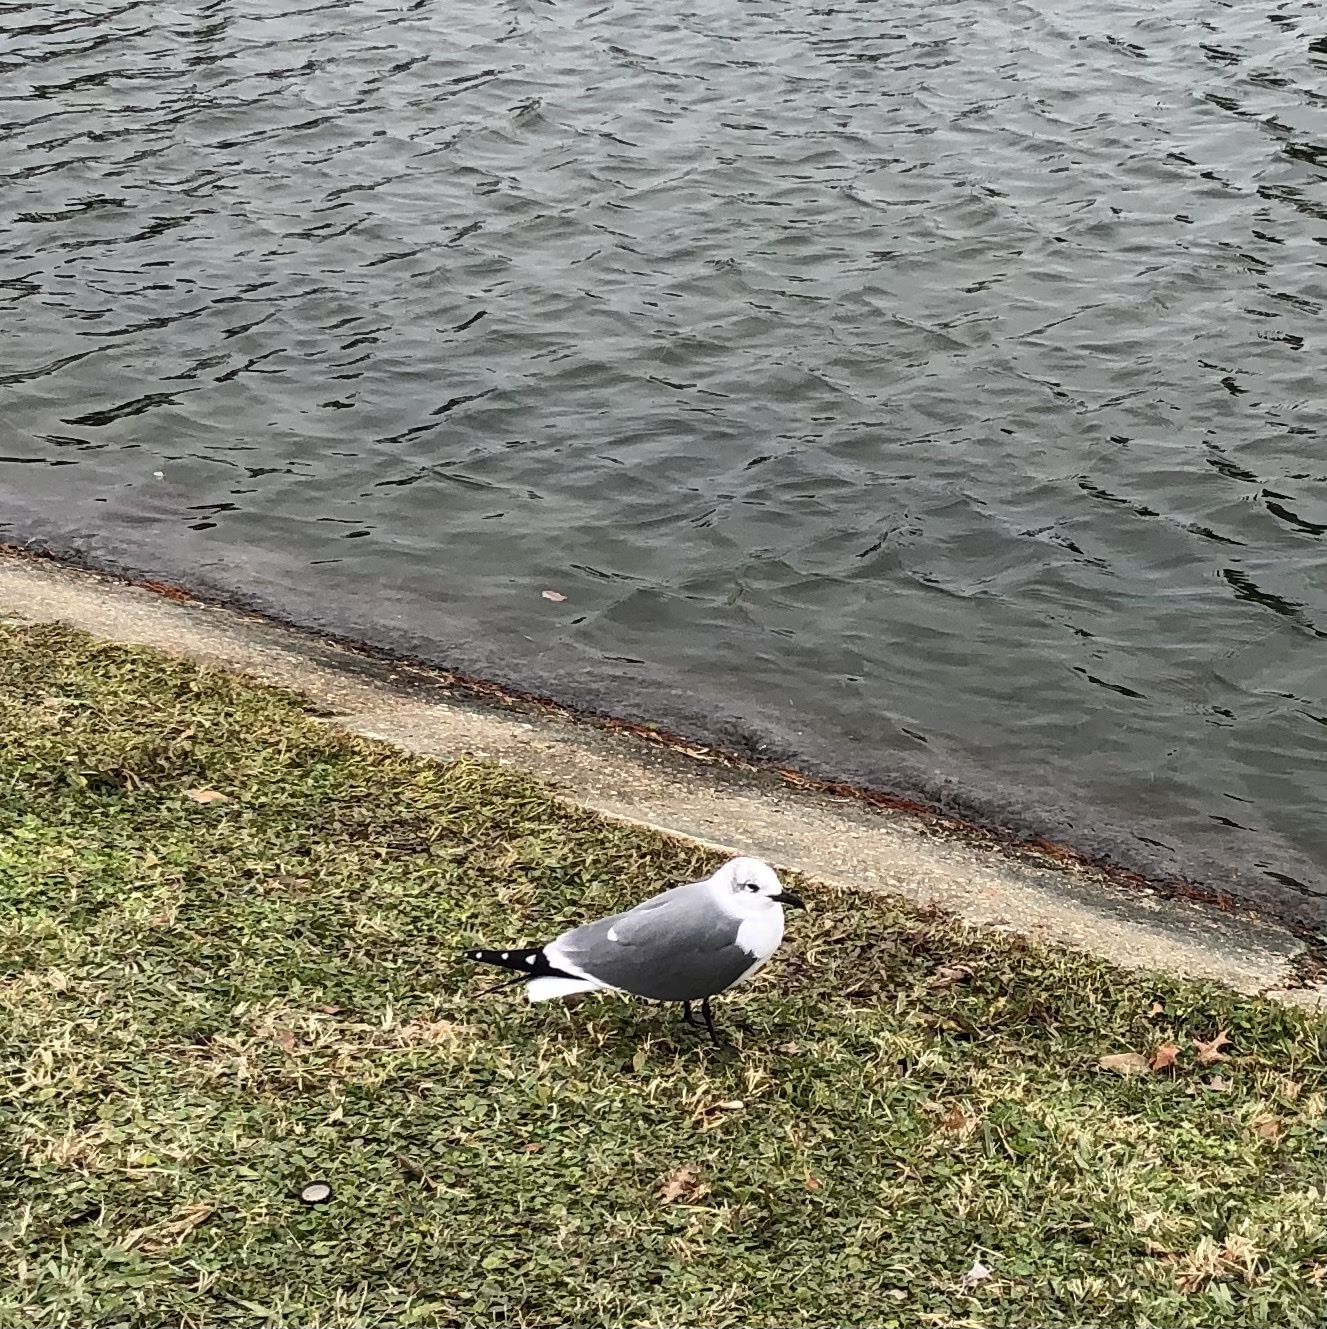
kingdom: Animalia
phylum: Chordata
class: Aves
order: Charadriiformes
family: Laridae
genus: Leucophaeus
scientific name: Leucophaeus atricilla
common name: Laughing gull
